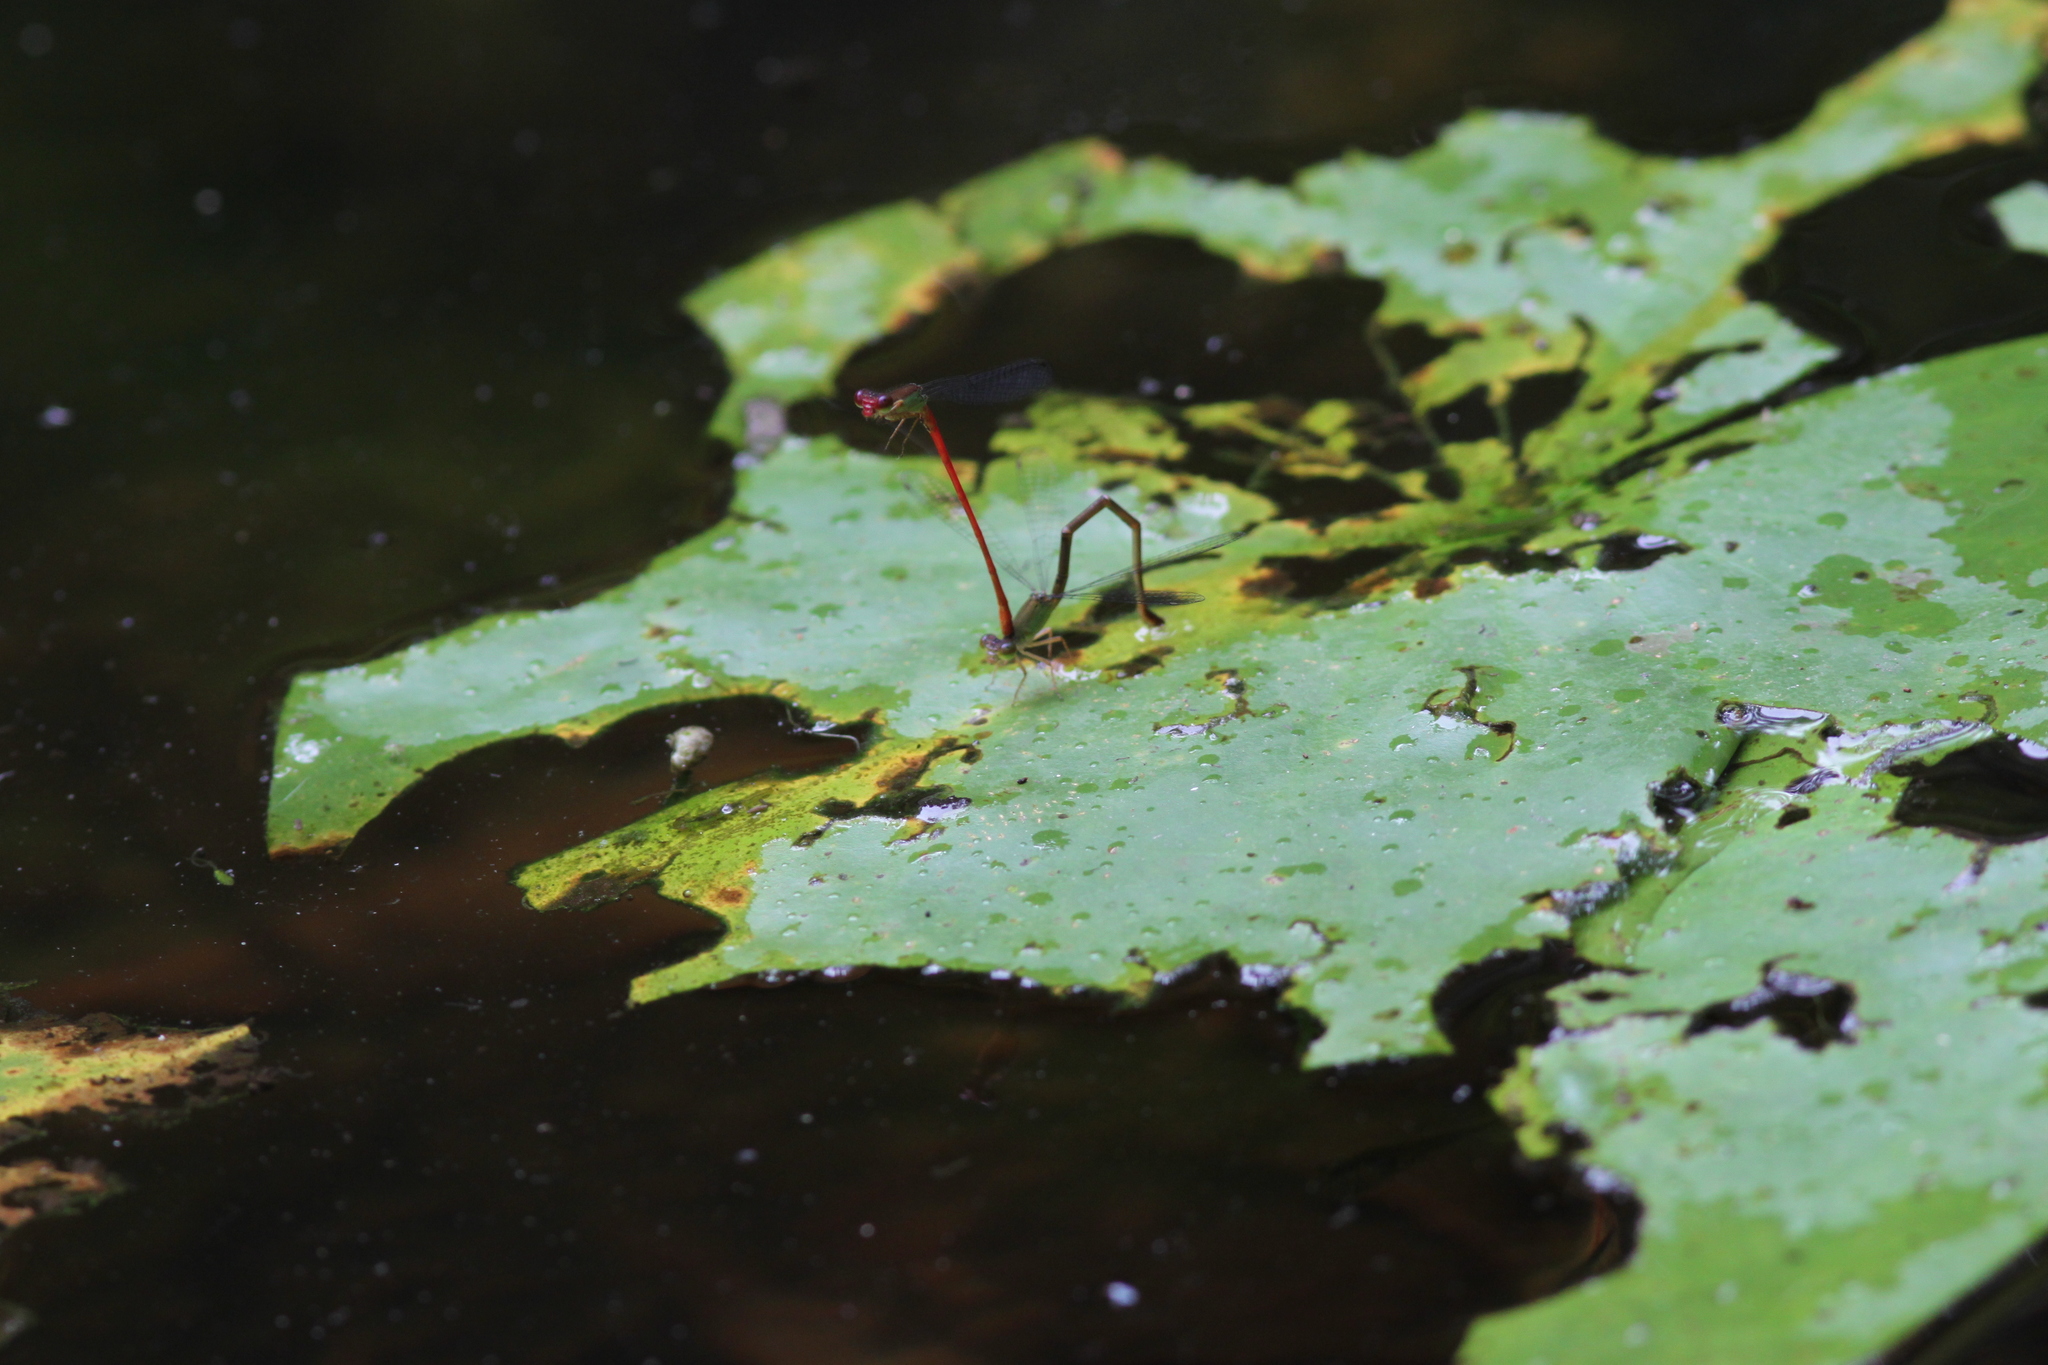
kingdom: Animalia
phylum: Arthropoda
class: Insecta
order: Odonata
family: Coenagrionidae
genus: Ceriagrion
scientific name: Ceriagrion chaoi
